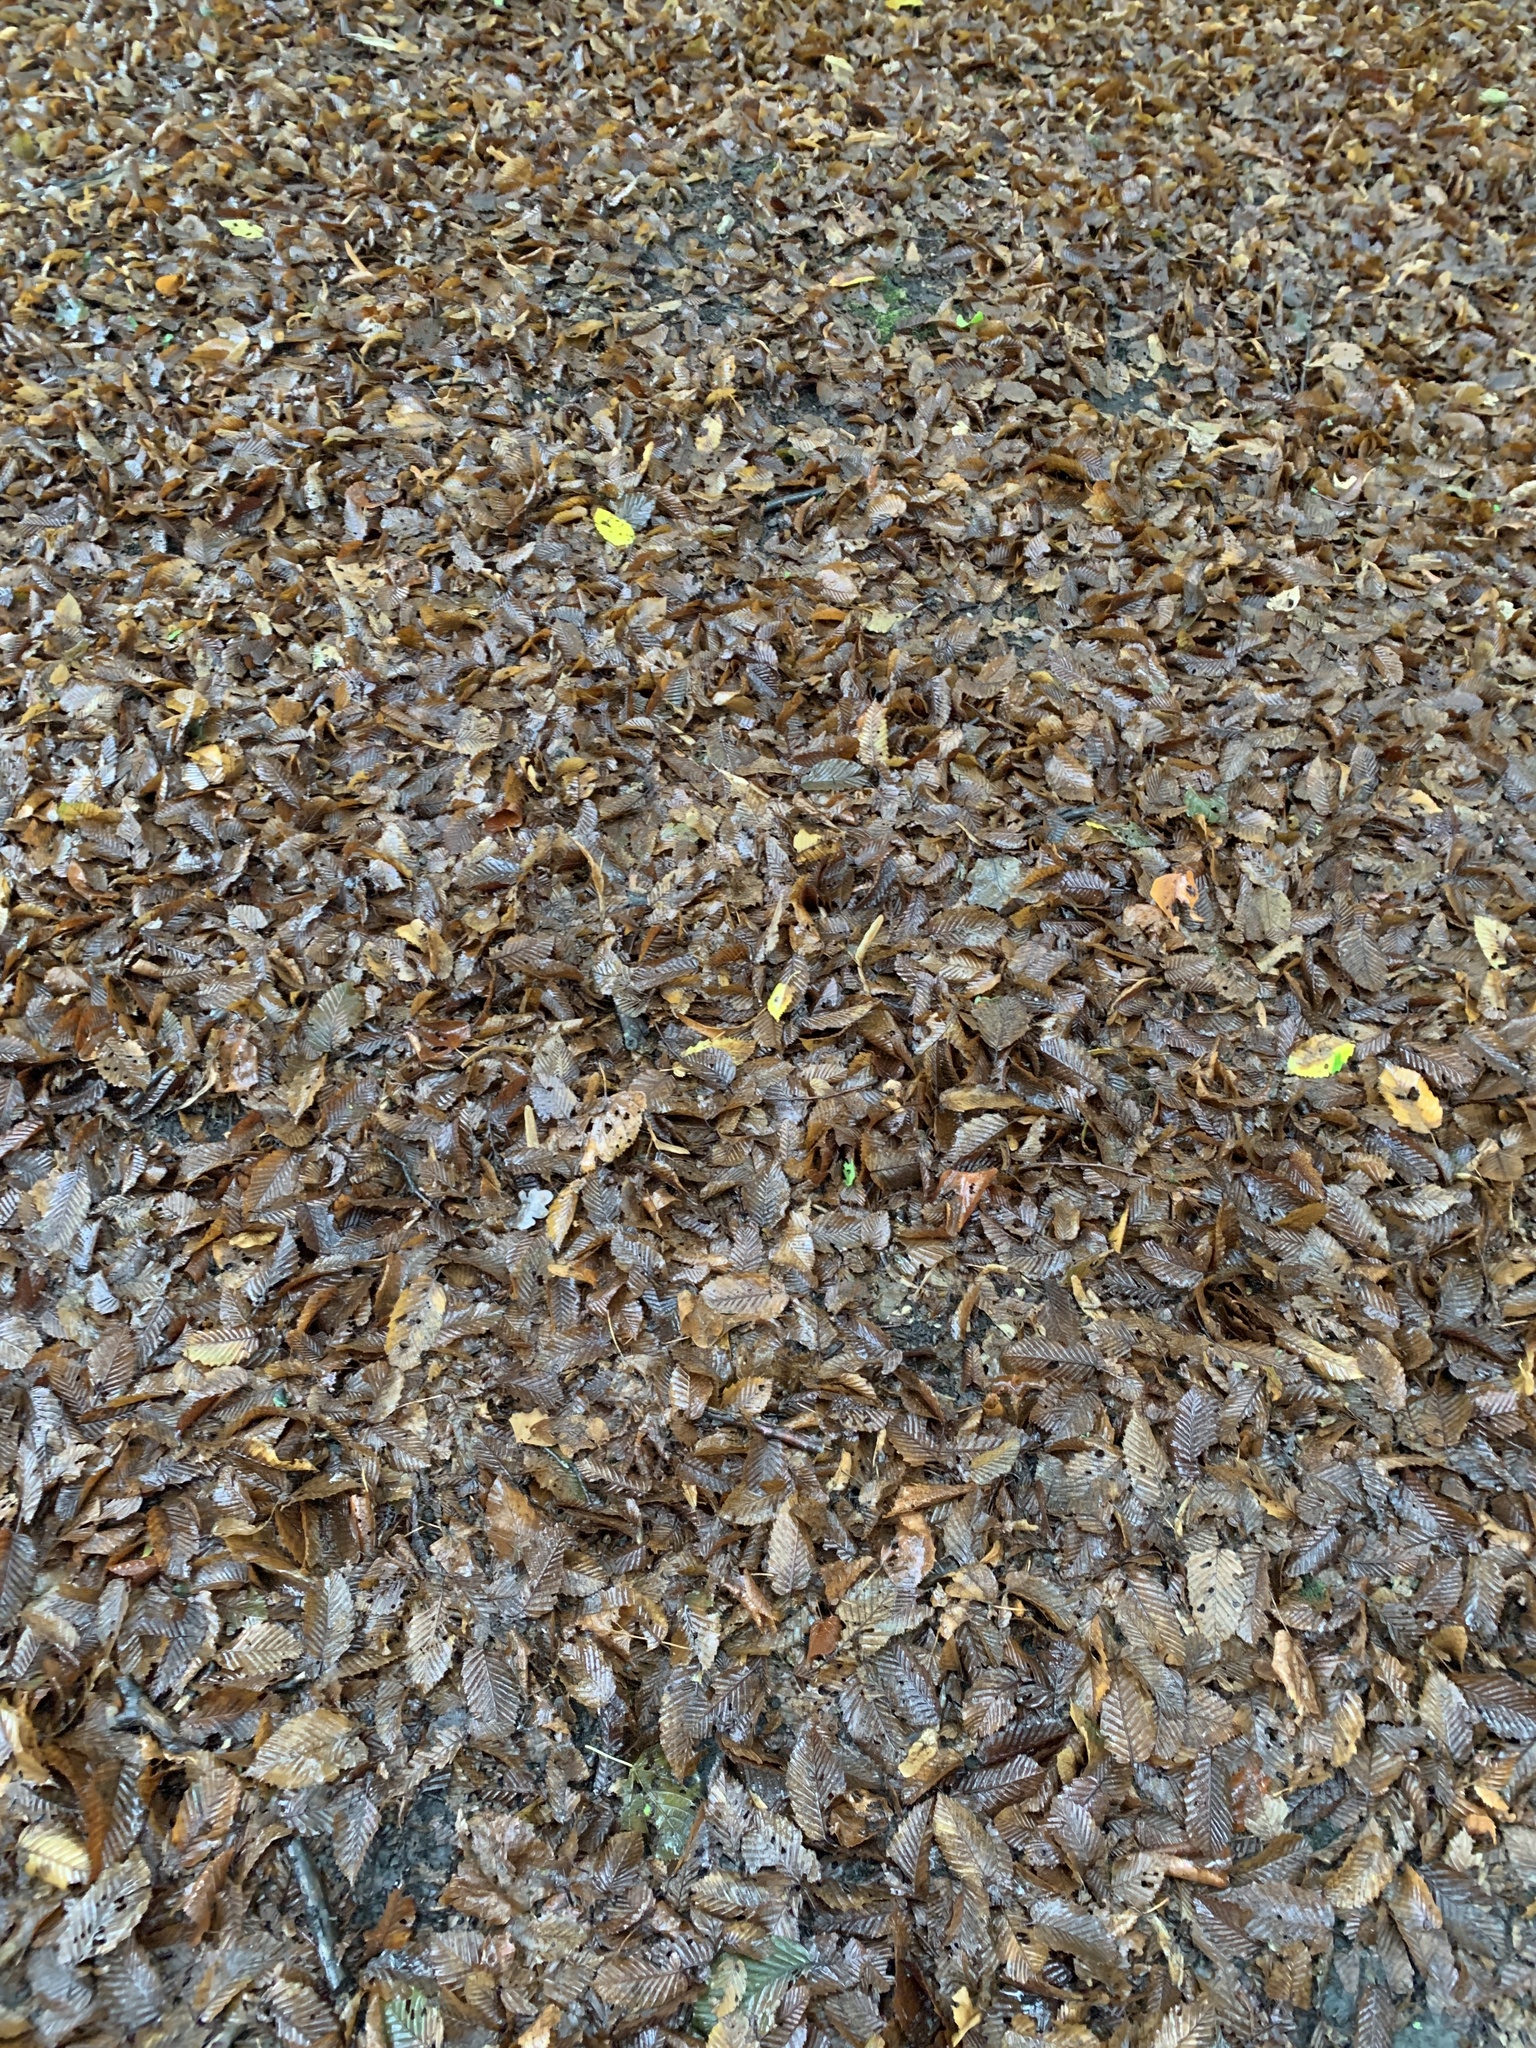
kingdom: Plantae
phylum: Tracheophyta
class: Magnoliopsida
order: Fagales
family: Betulaceae
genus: Carpinus
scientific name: Carpinus betulus
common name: Hornbeam
